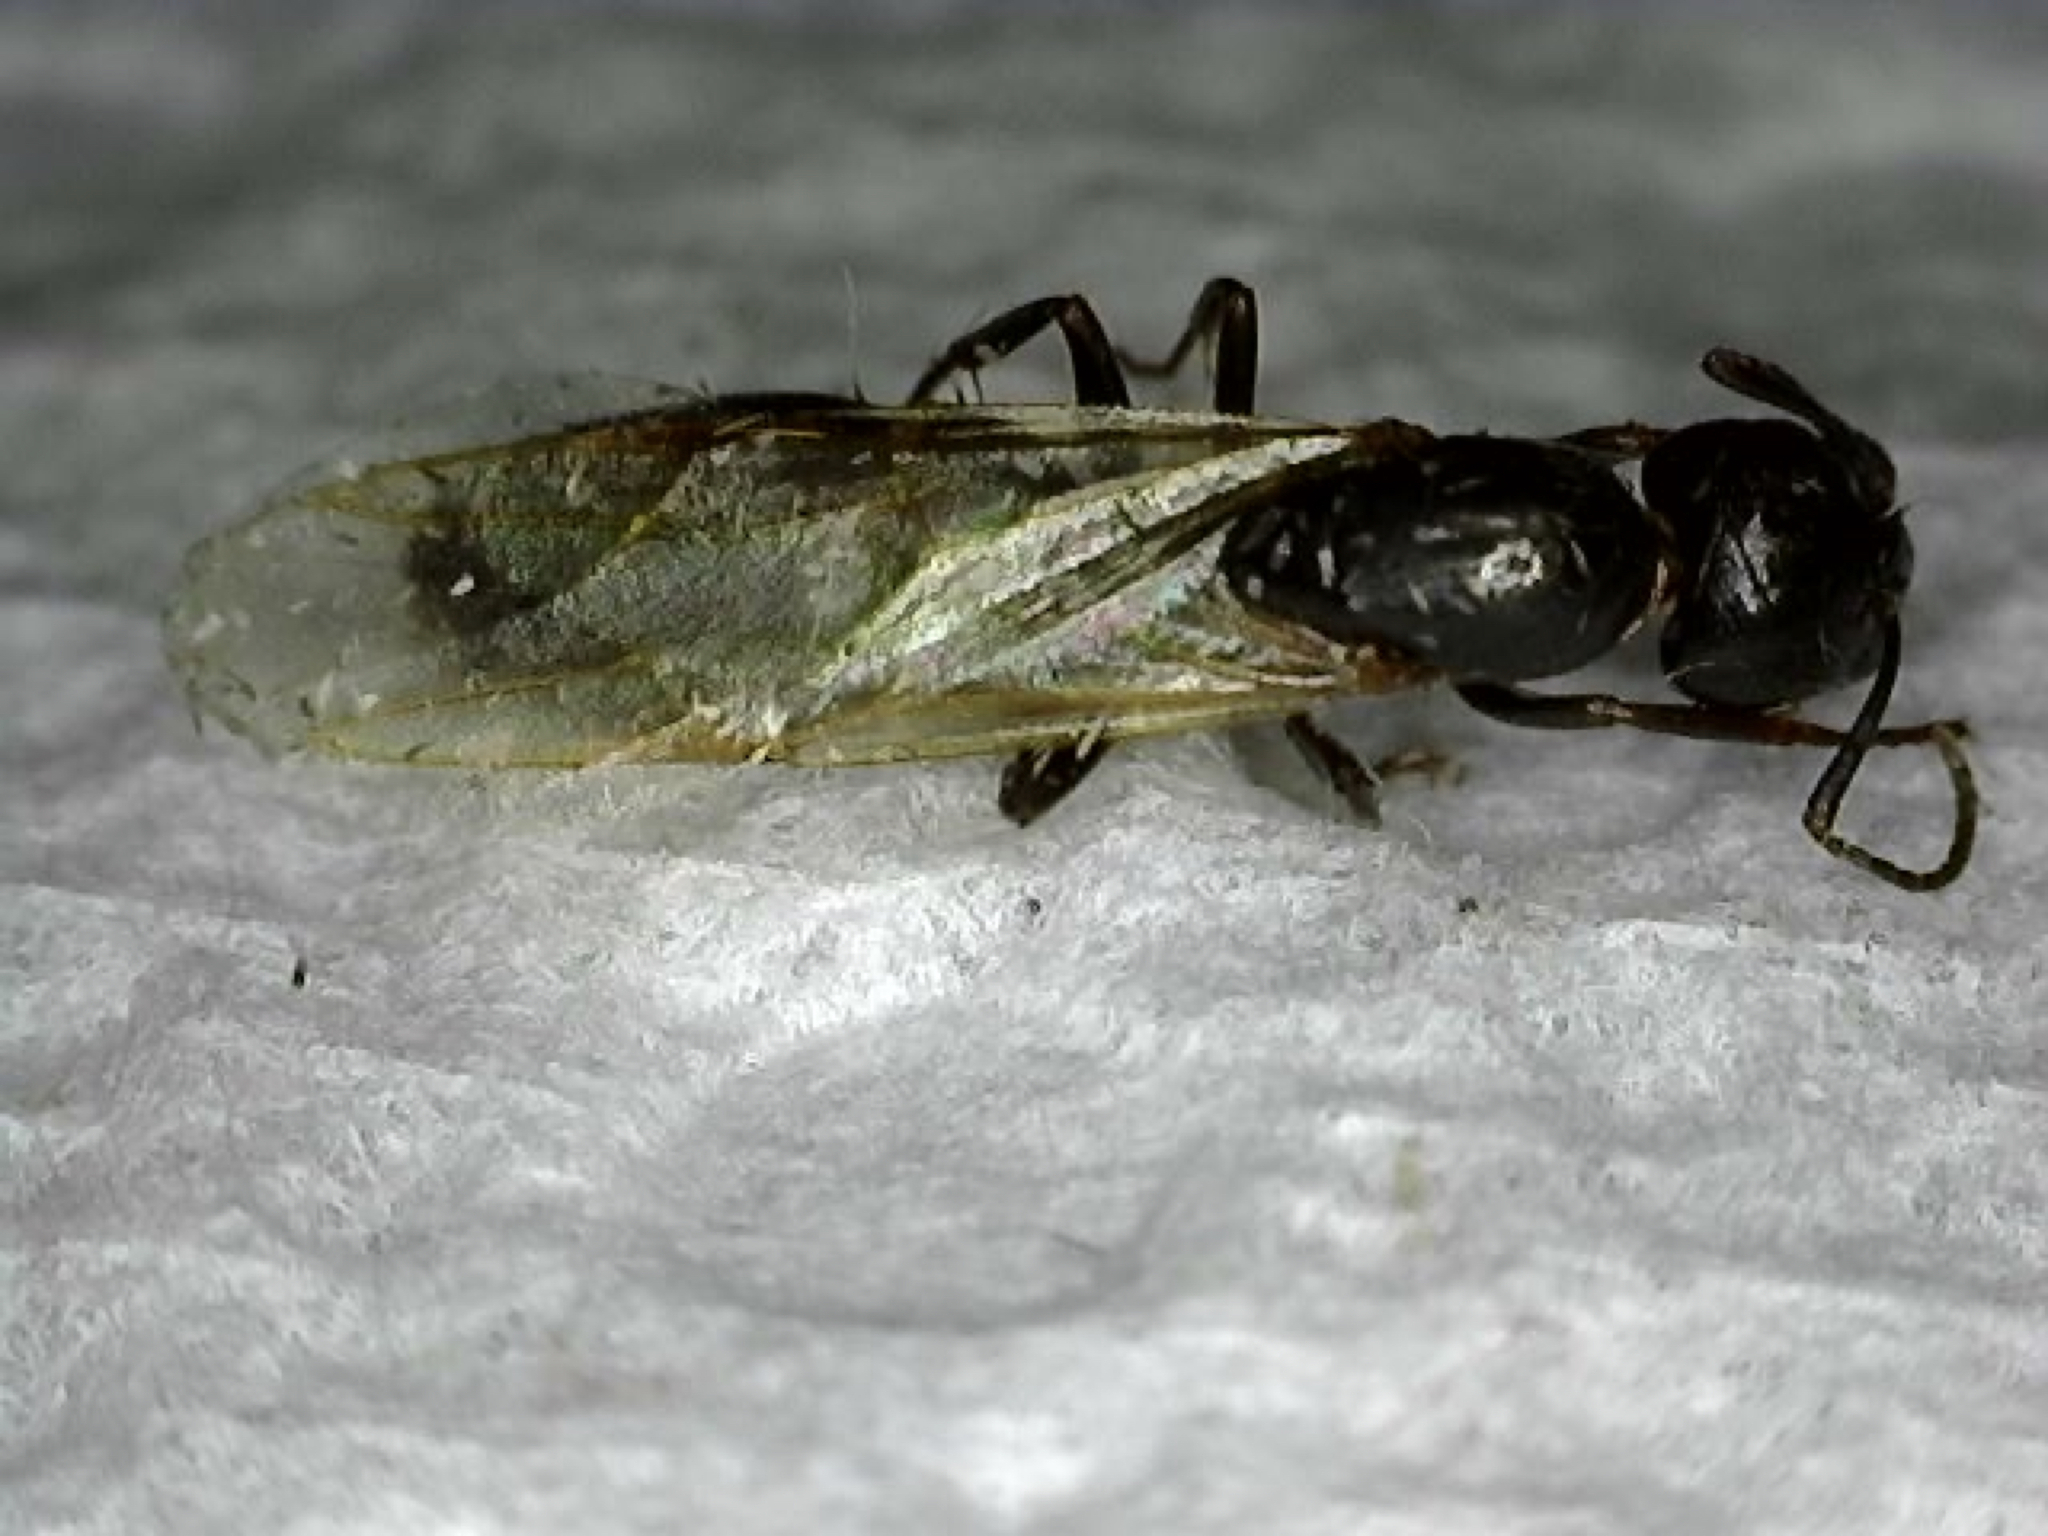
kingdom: Animalia
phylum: Arthropoda
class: Insecta
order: Hymenoptera
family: Formicidae
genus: Camponotus
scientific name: Camponotus nearcticus
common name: Smaller carpenter ant
